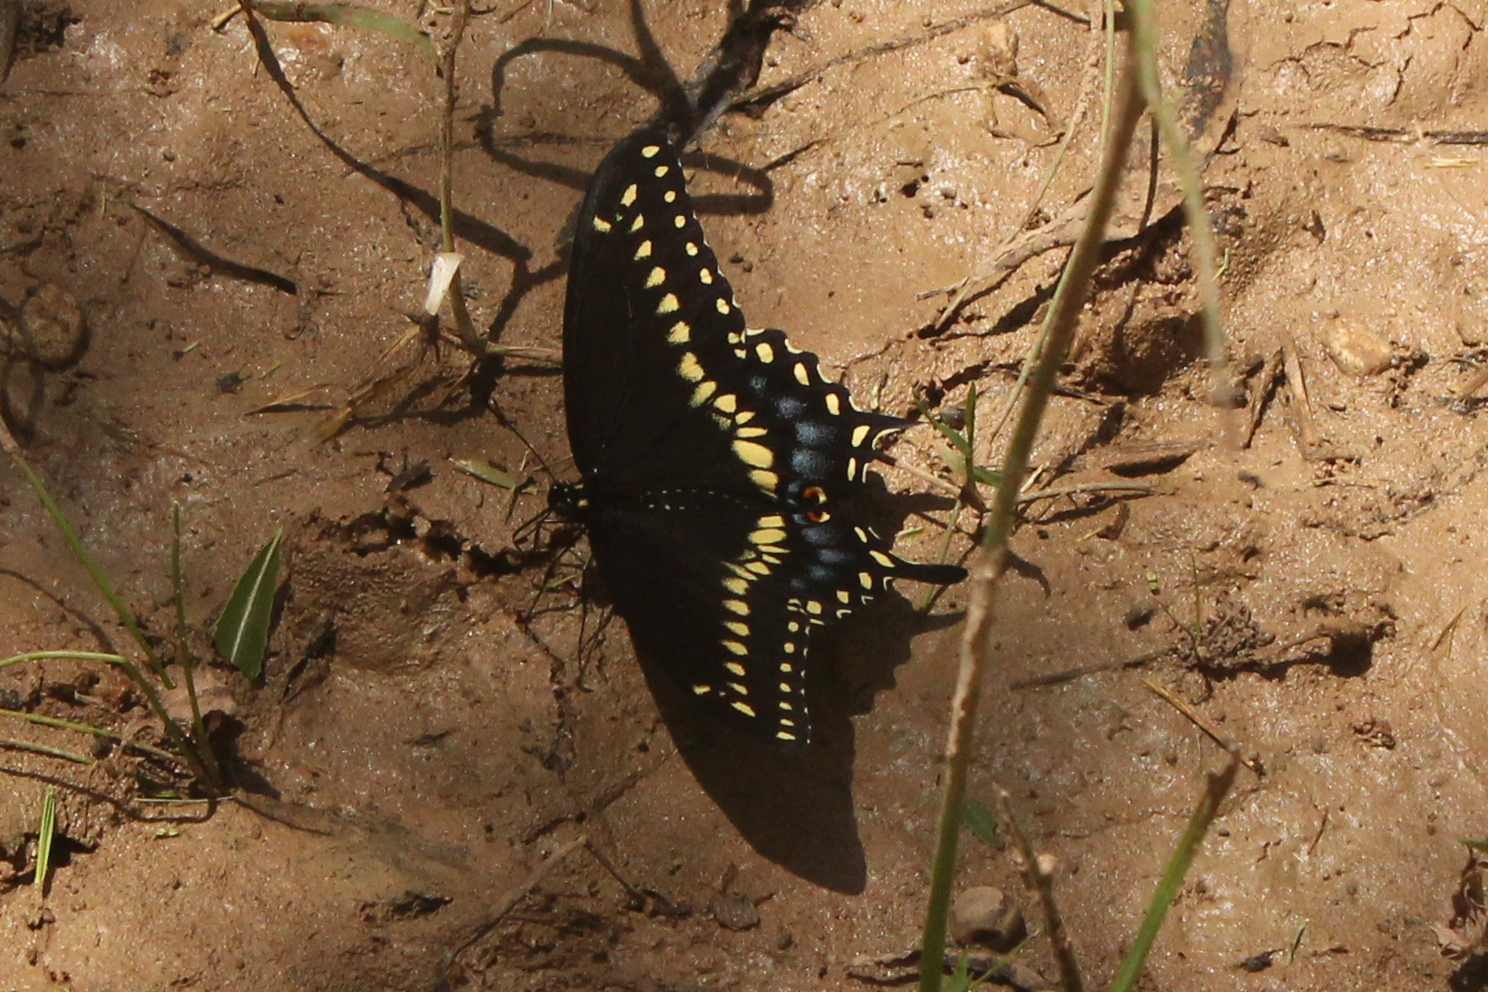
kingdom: Animalia
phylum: Arthropoda
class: Insecta
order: Lepidoptera
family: Papilionidae
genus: Papilio
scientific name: Papilio polyxenes
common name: Black swallowtail
